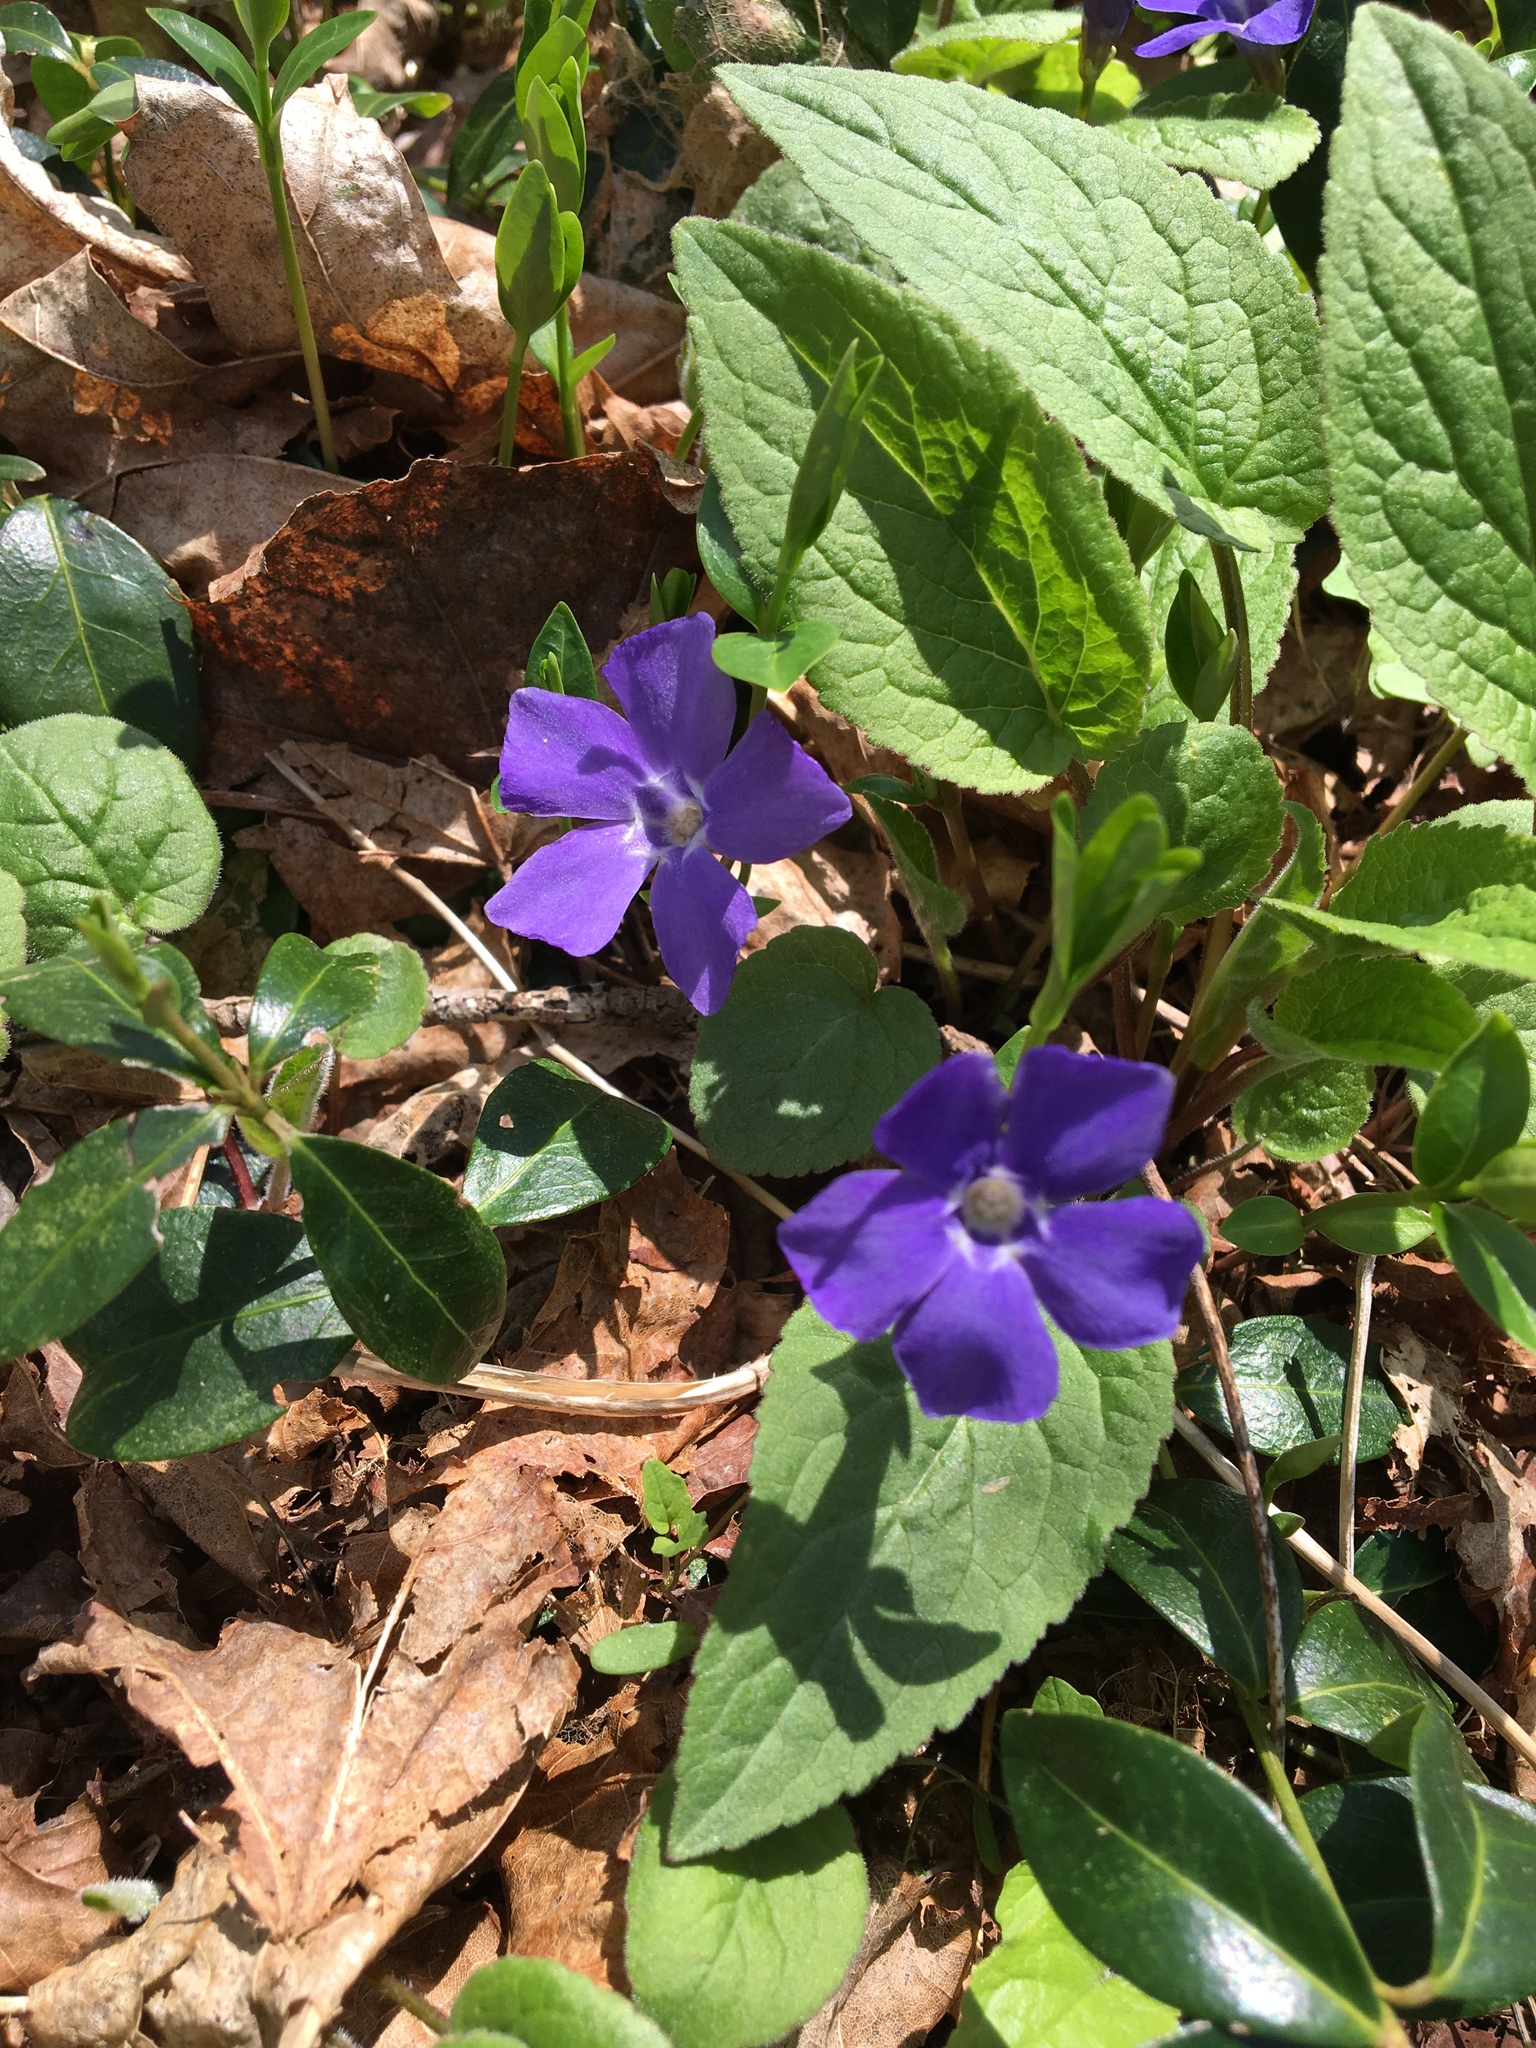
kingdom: Plantae
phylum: Tracheophyta
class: Magnoliopsida
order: Gentianales
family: Apocynaceae
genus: Vinca
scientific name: Vinca minor
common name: Lesser periwinkle
